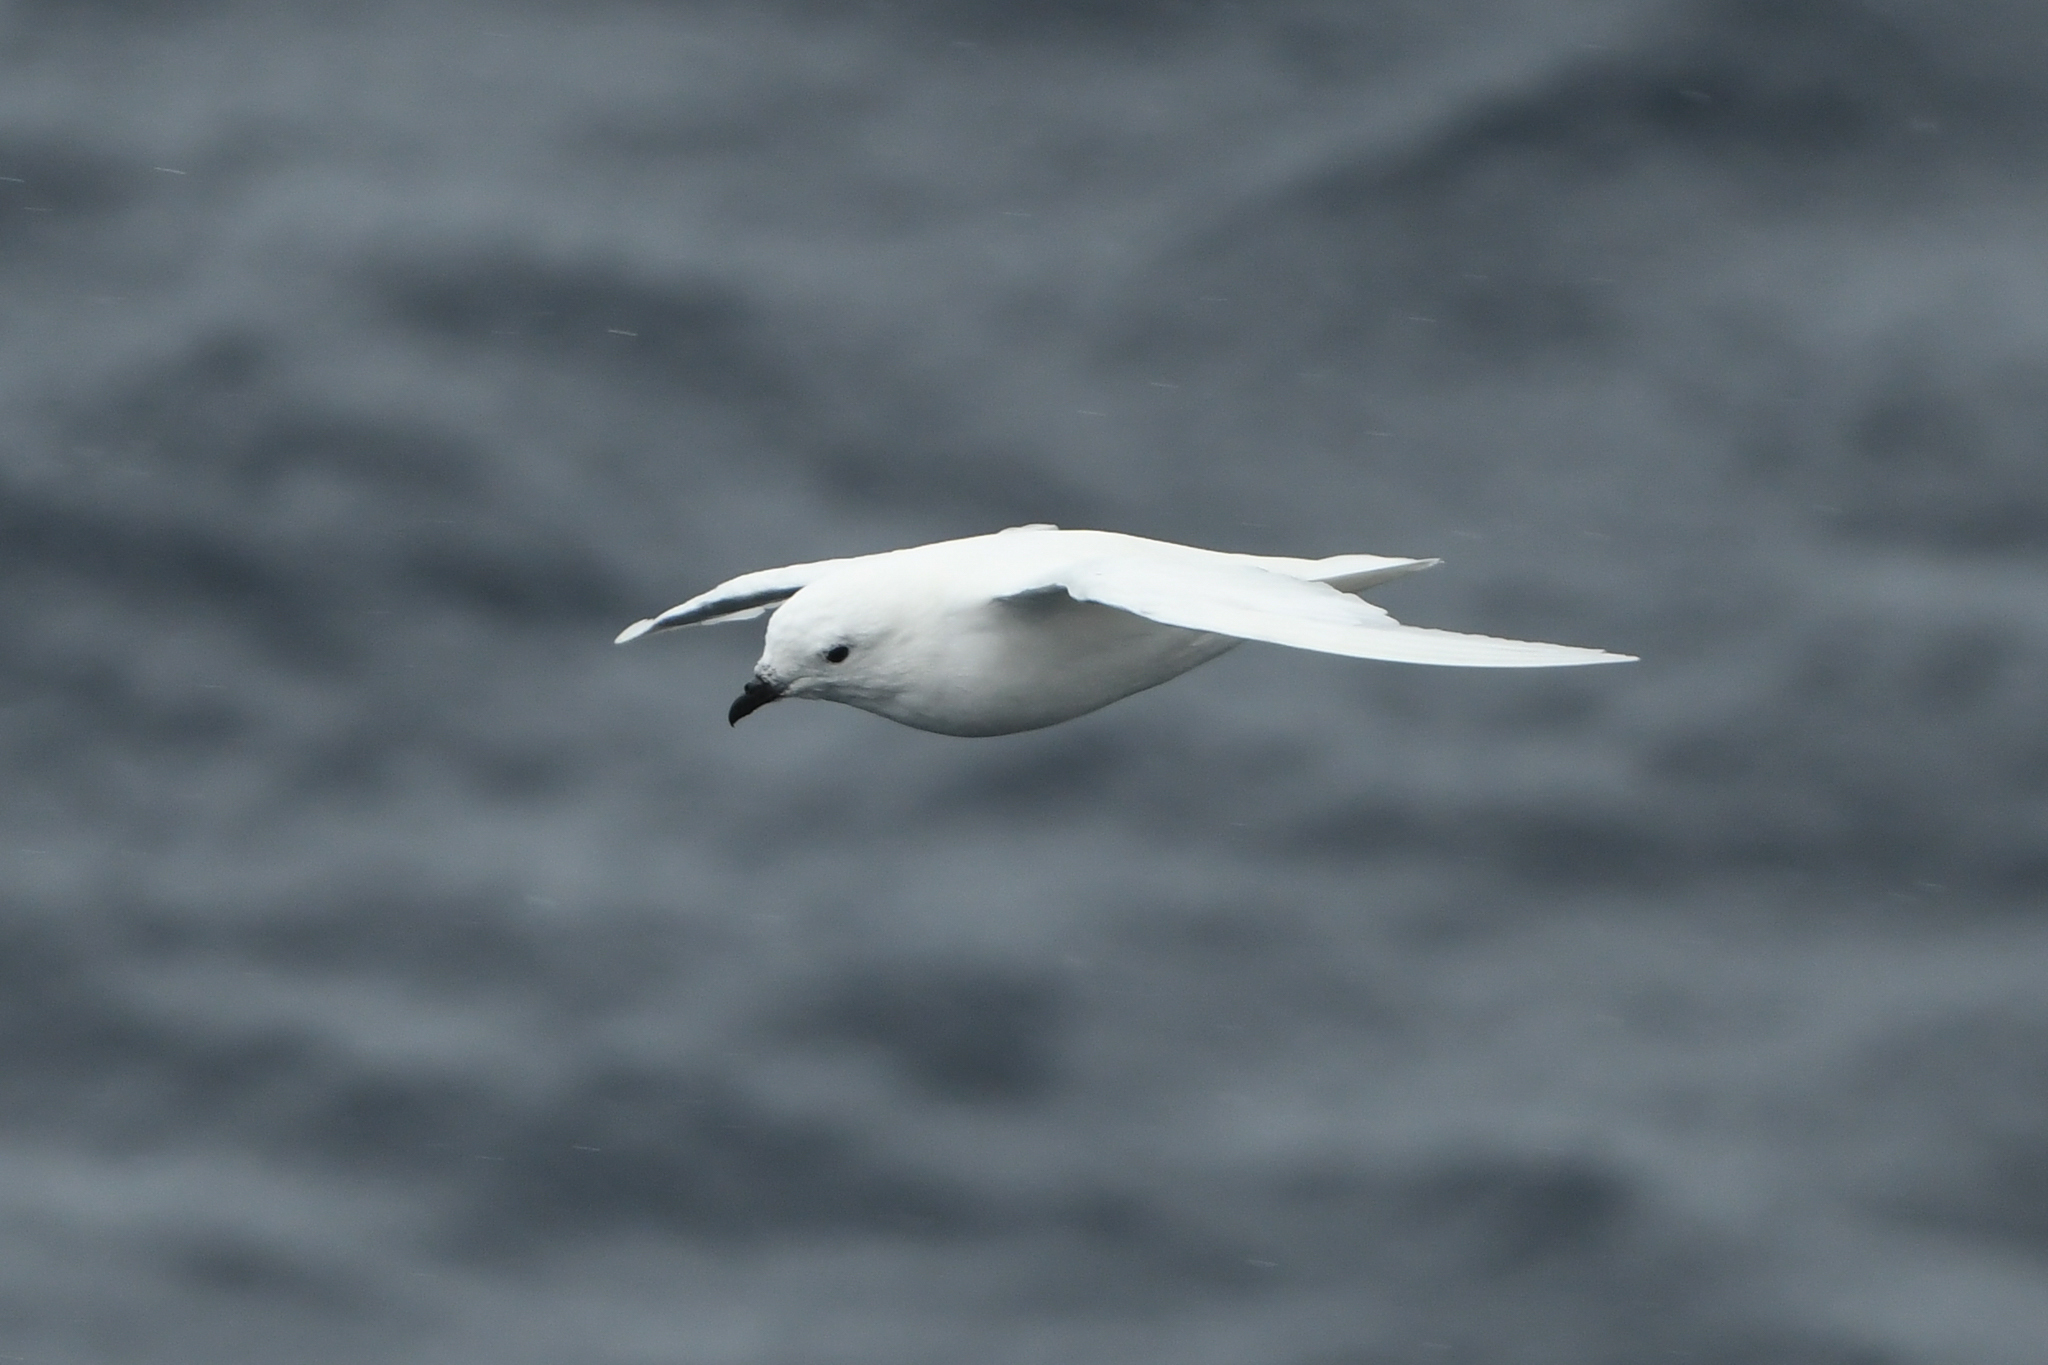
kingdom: Animalia
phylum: Chordata
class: Aves
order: Procellariiformes
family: Procellariidae
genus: Pagodroma
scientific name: Pagodroma nivea
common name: Snow petrel
